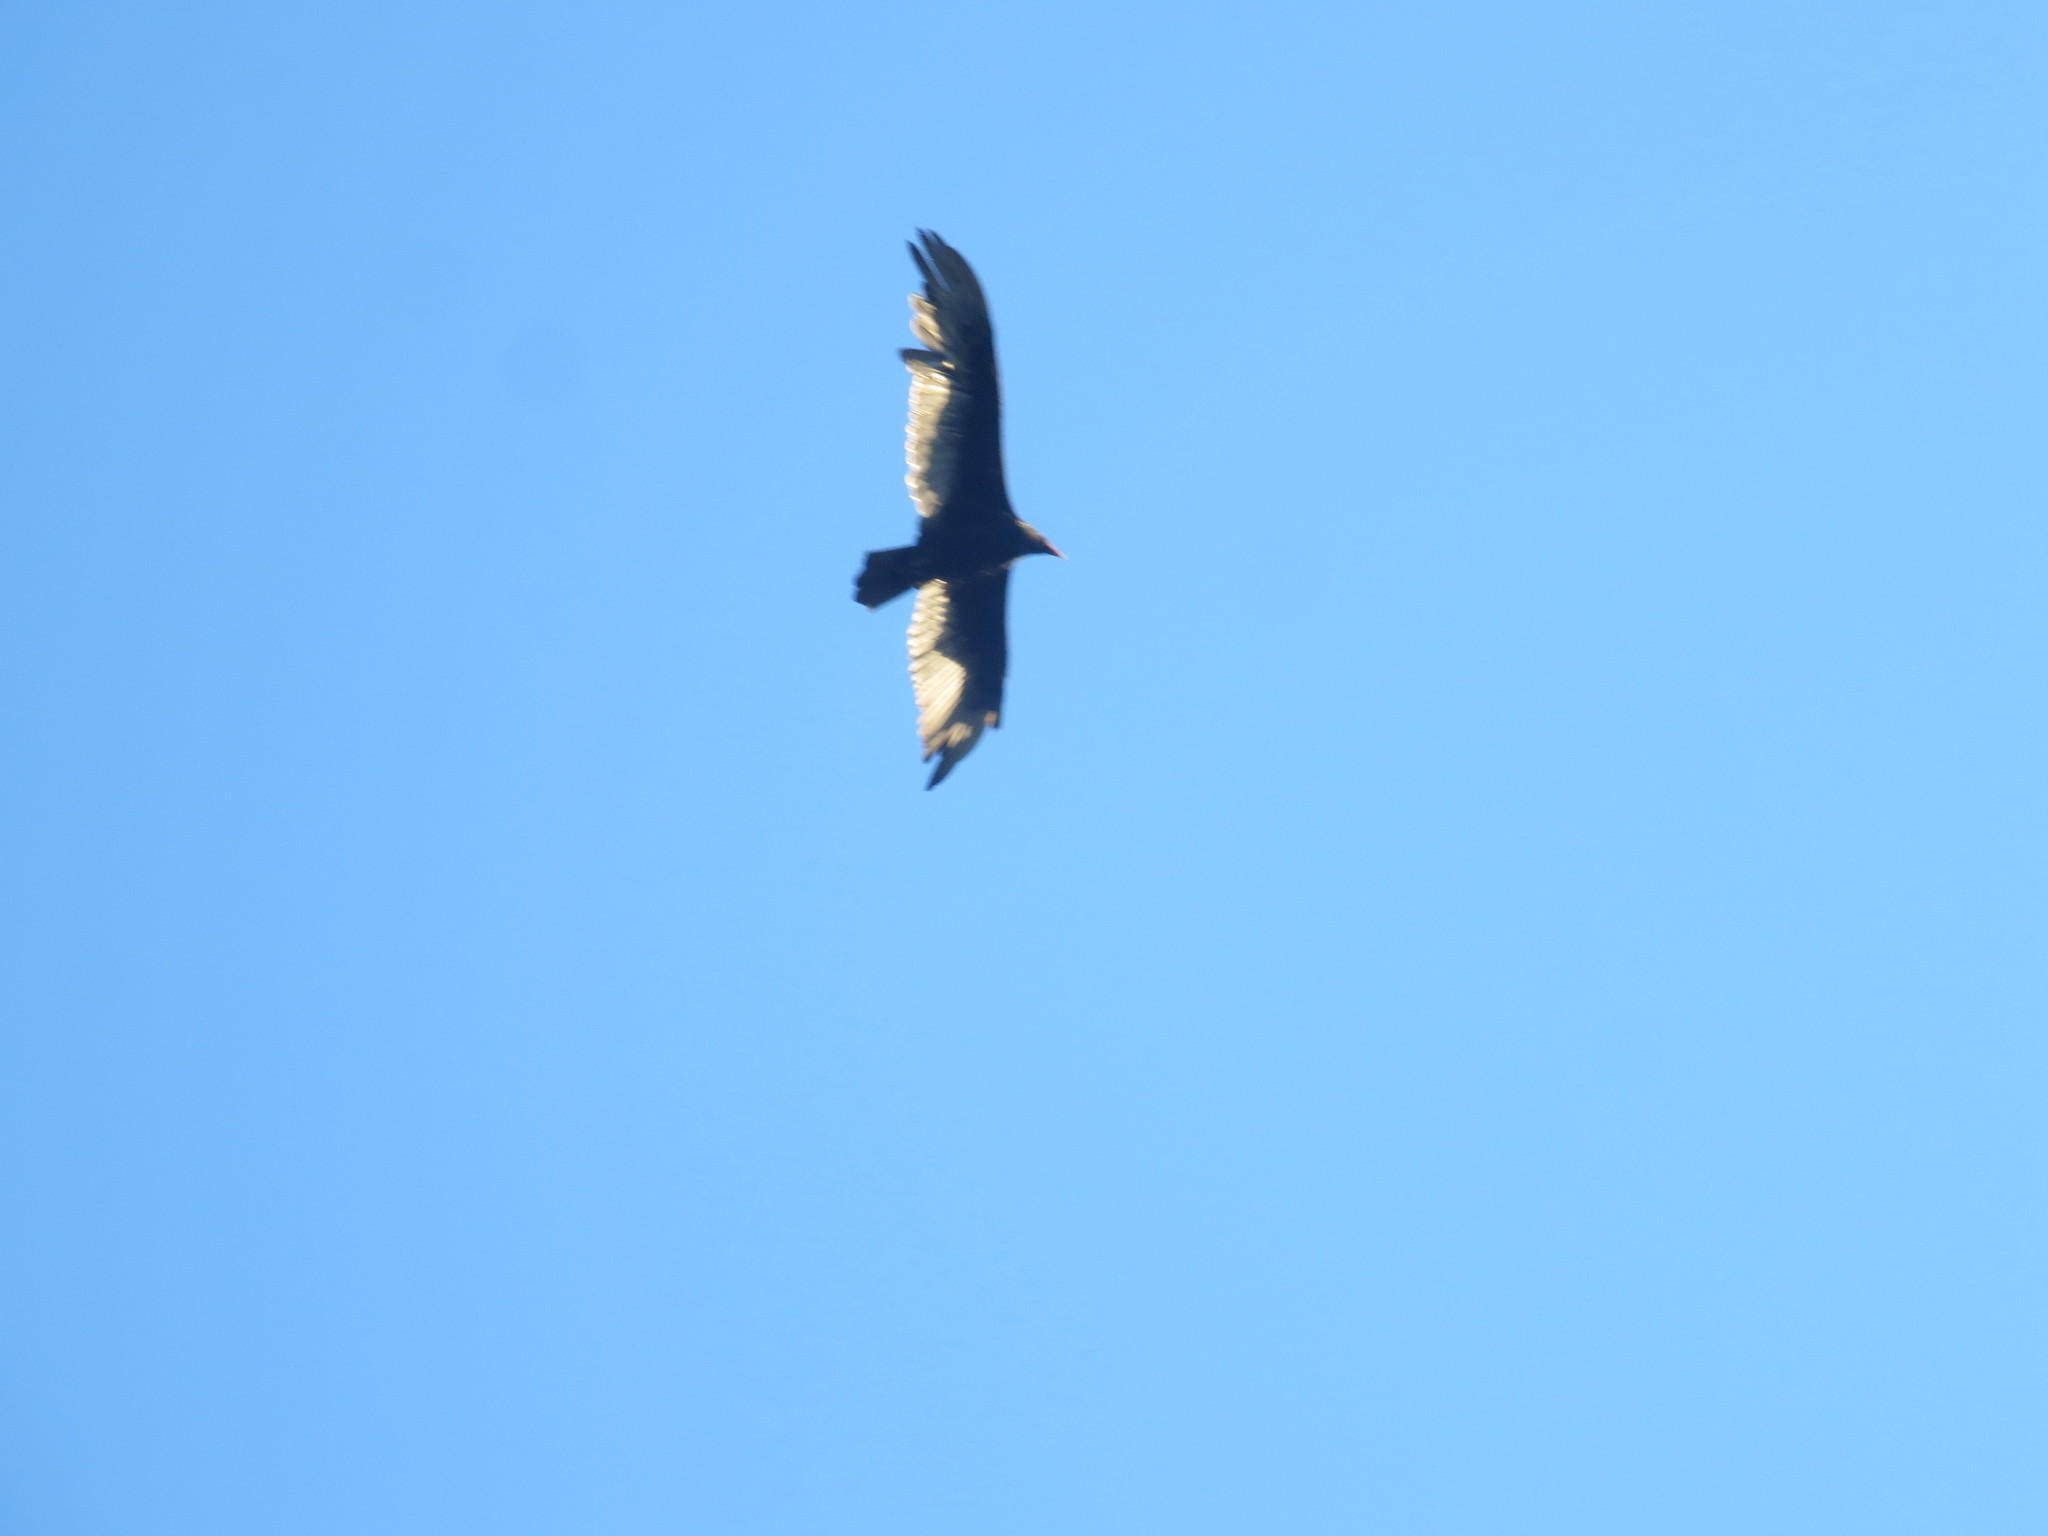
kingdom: Animalia
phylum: Chordata
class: Aves
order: Accipitriformes
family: Cathartidae
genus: Cathartes
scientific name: Cathartes aura
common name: Turkey vulture
